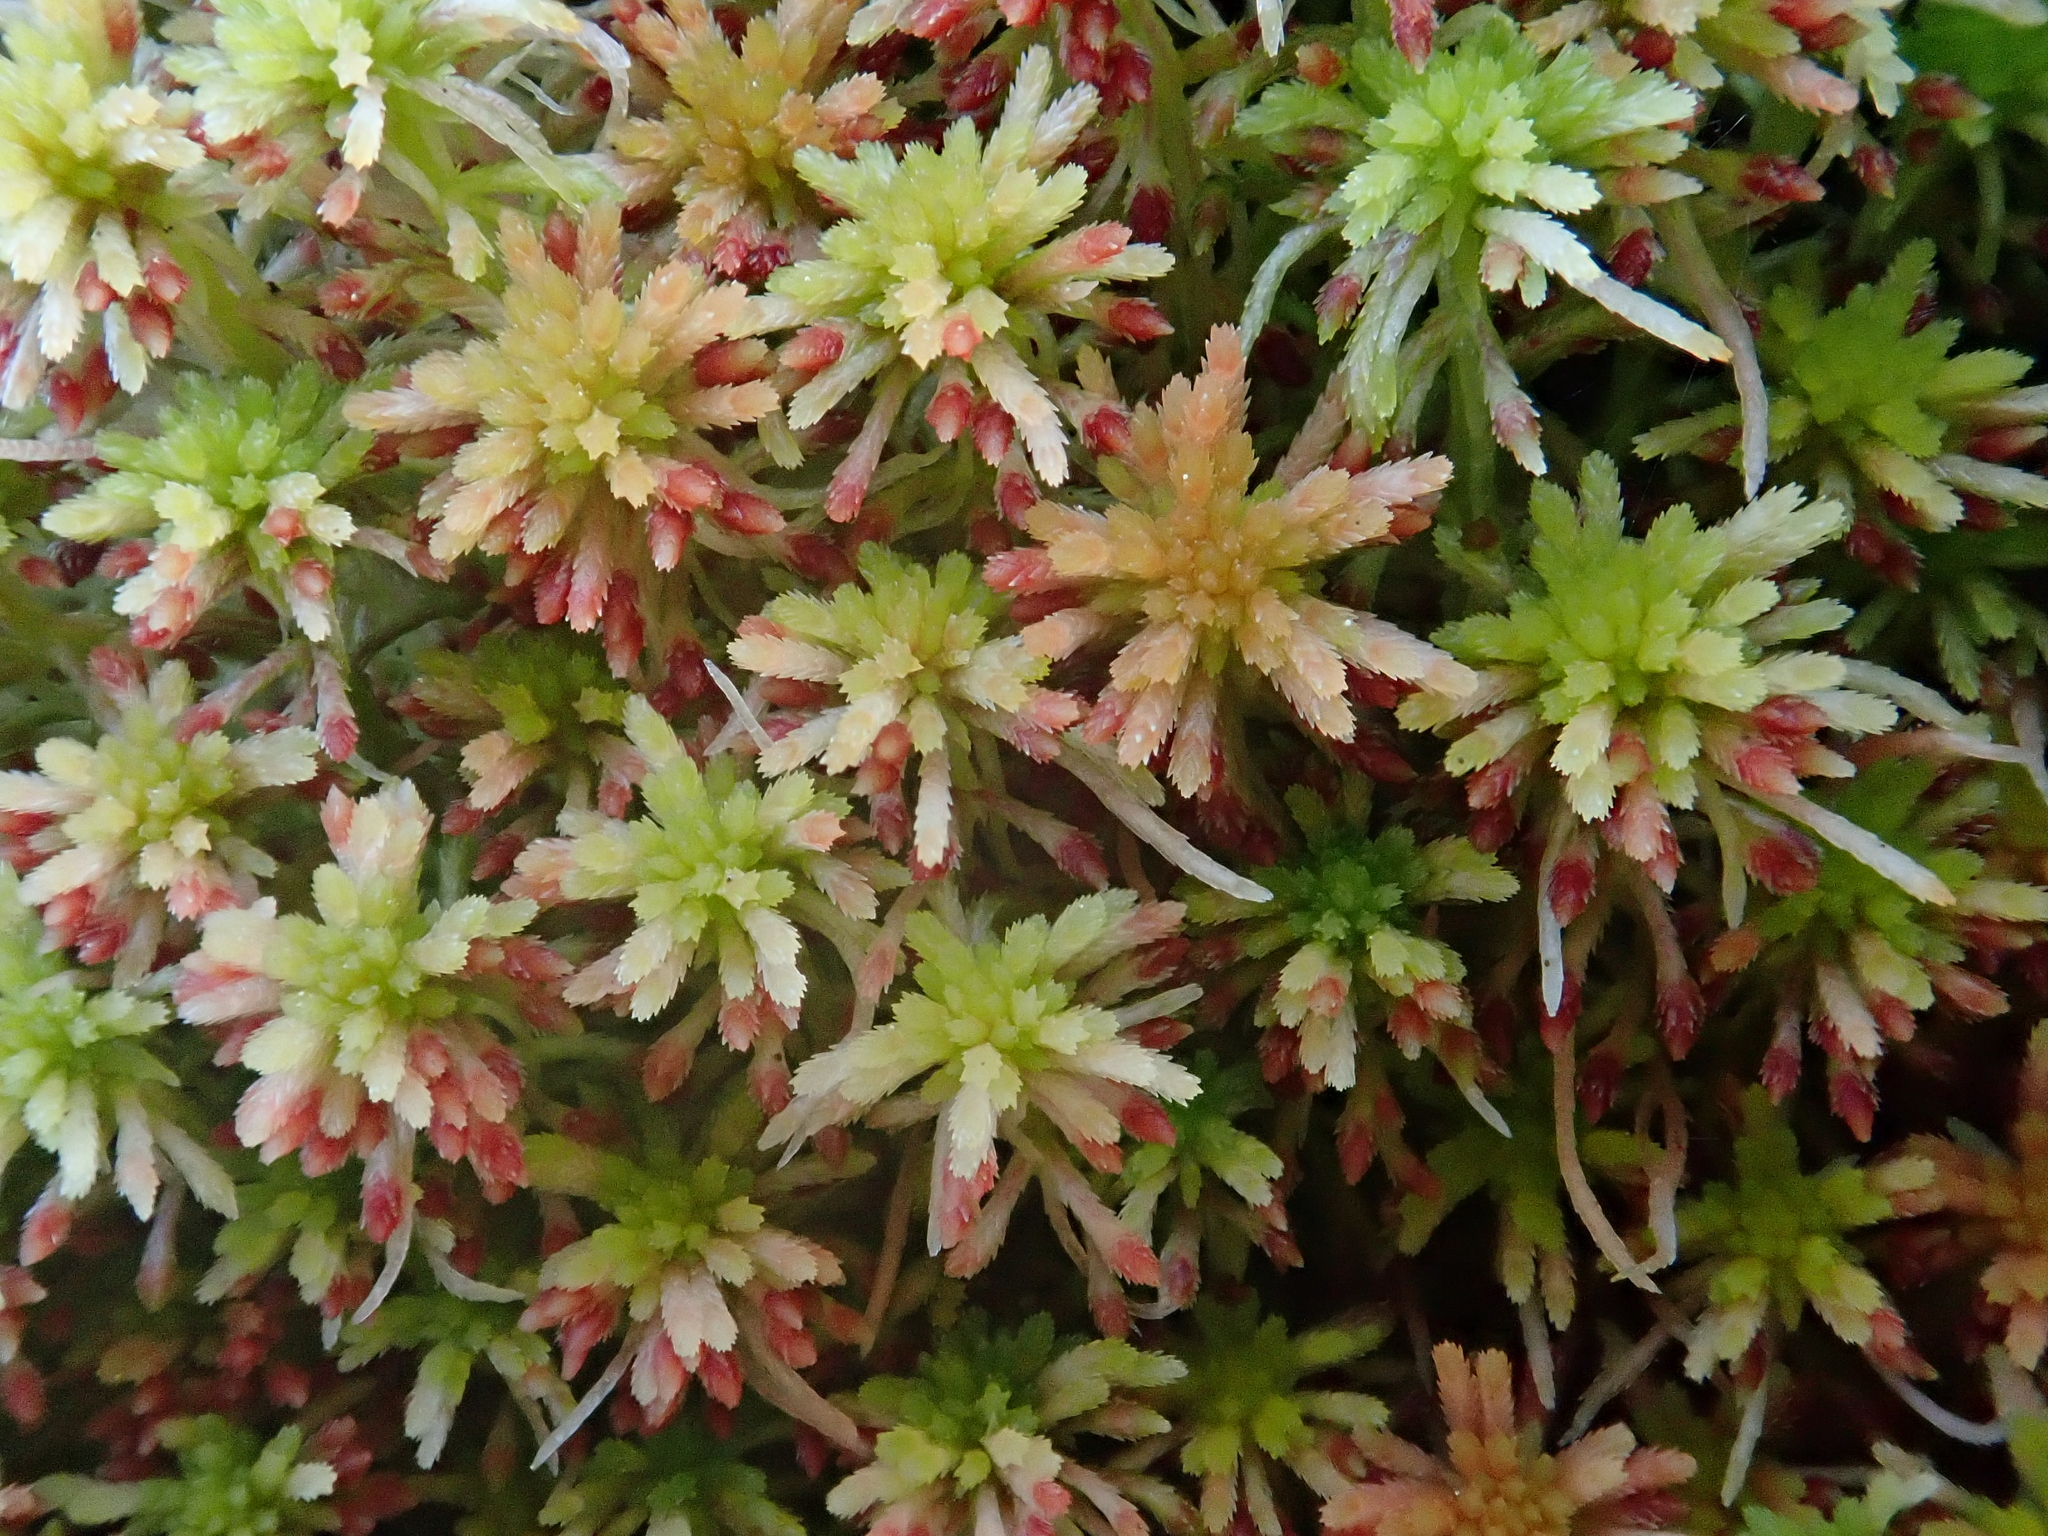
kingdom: Plantae
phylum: Bryophyta
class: Sphagnopsida
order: Sphagnales
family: Sphagnaceae
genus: Sphagnum
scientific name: Sphagnum quinquefarium
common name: Five-ranked peat moss
